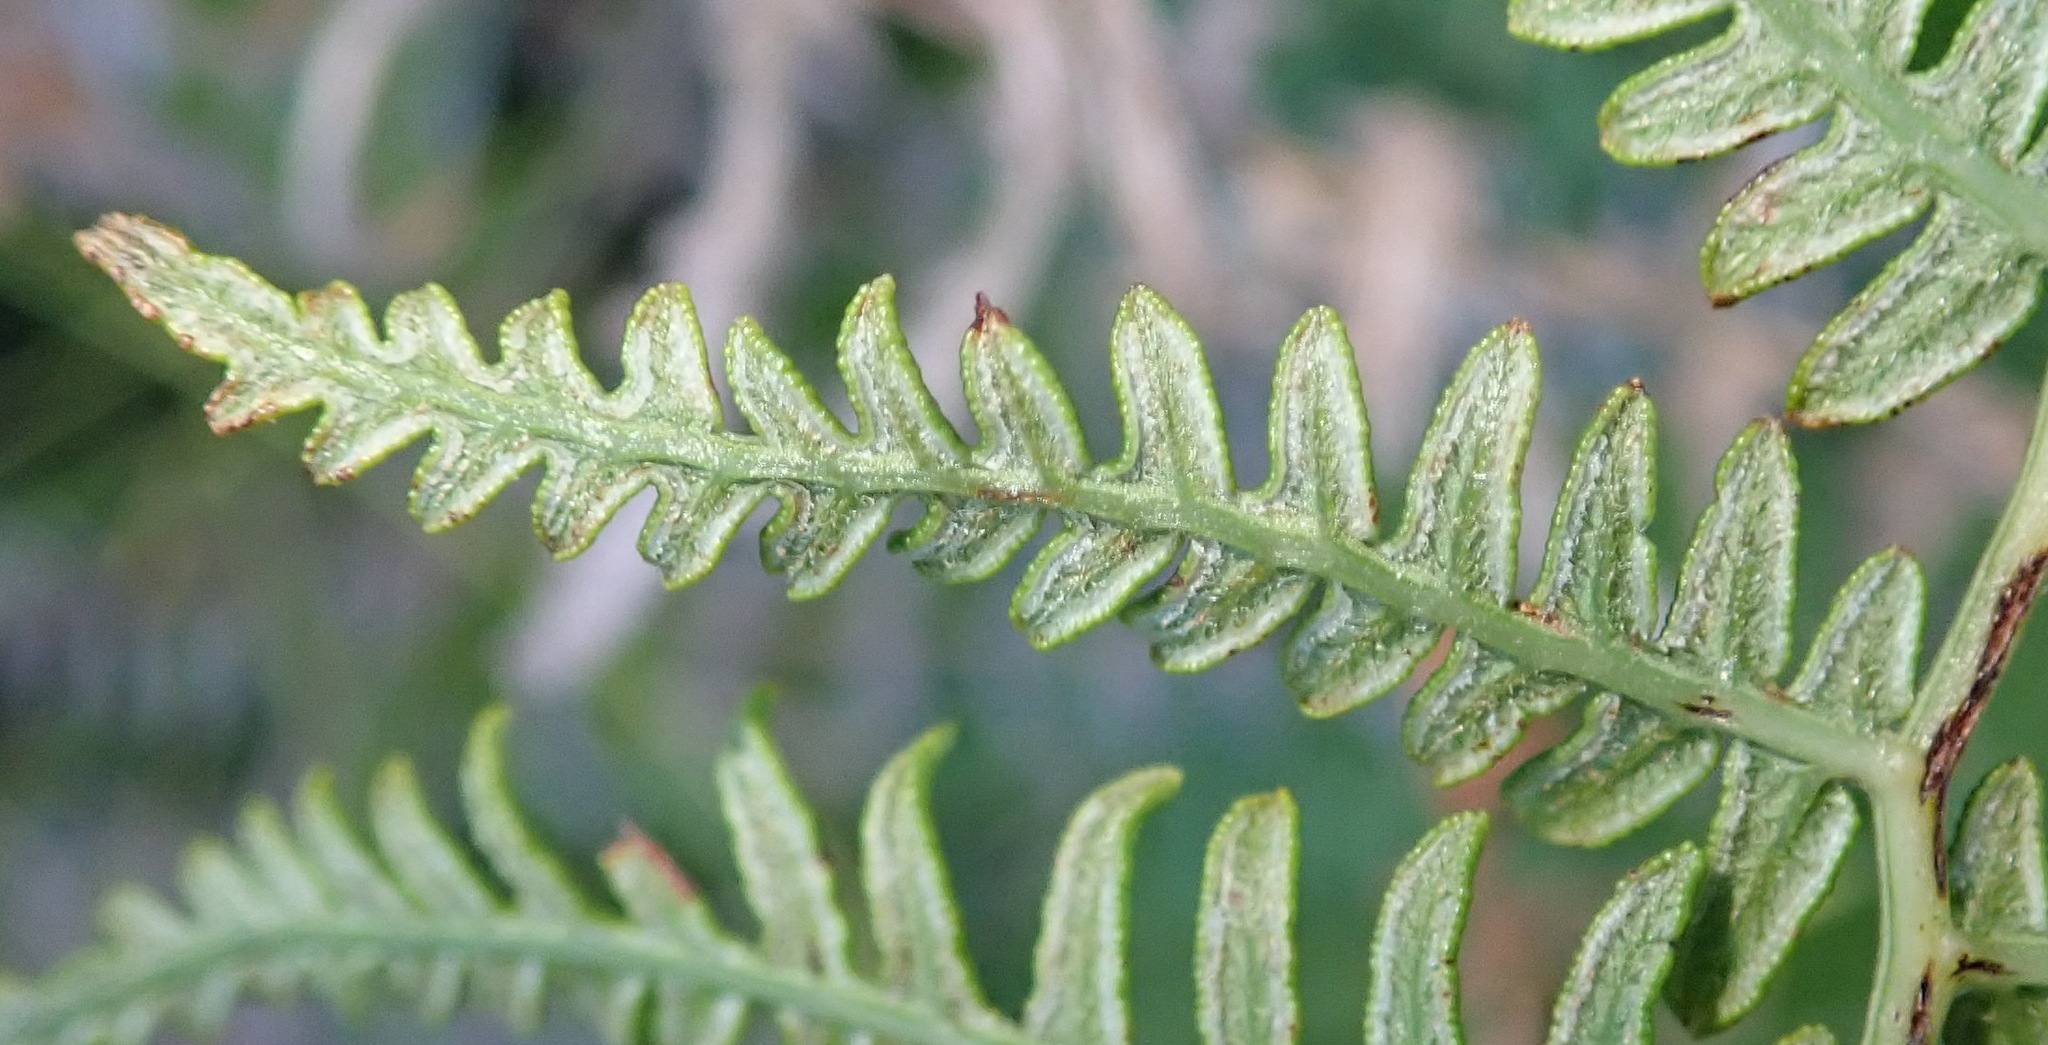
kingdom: Plantae
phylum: Tracheophyta
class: Polypodiopsida
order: Polypodiales
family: Dennstaedtiaceae
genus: Pteridium
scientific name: Pteridium aquilinum
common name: Bracken
